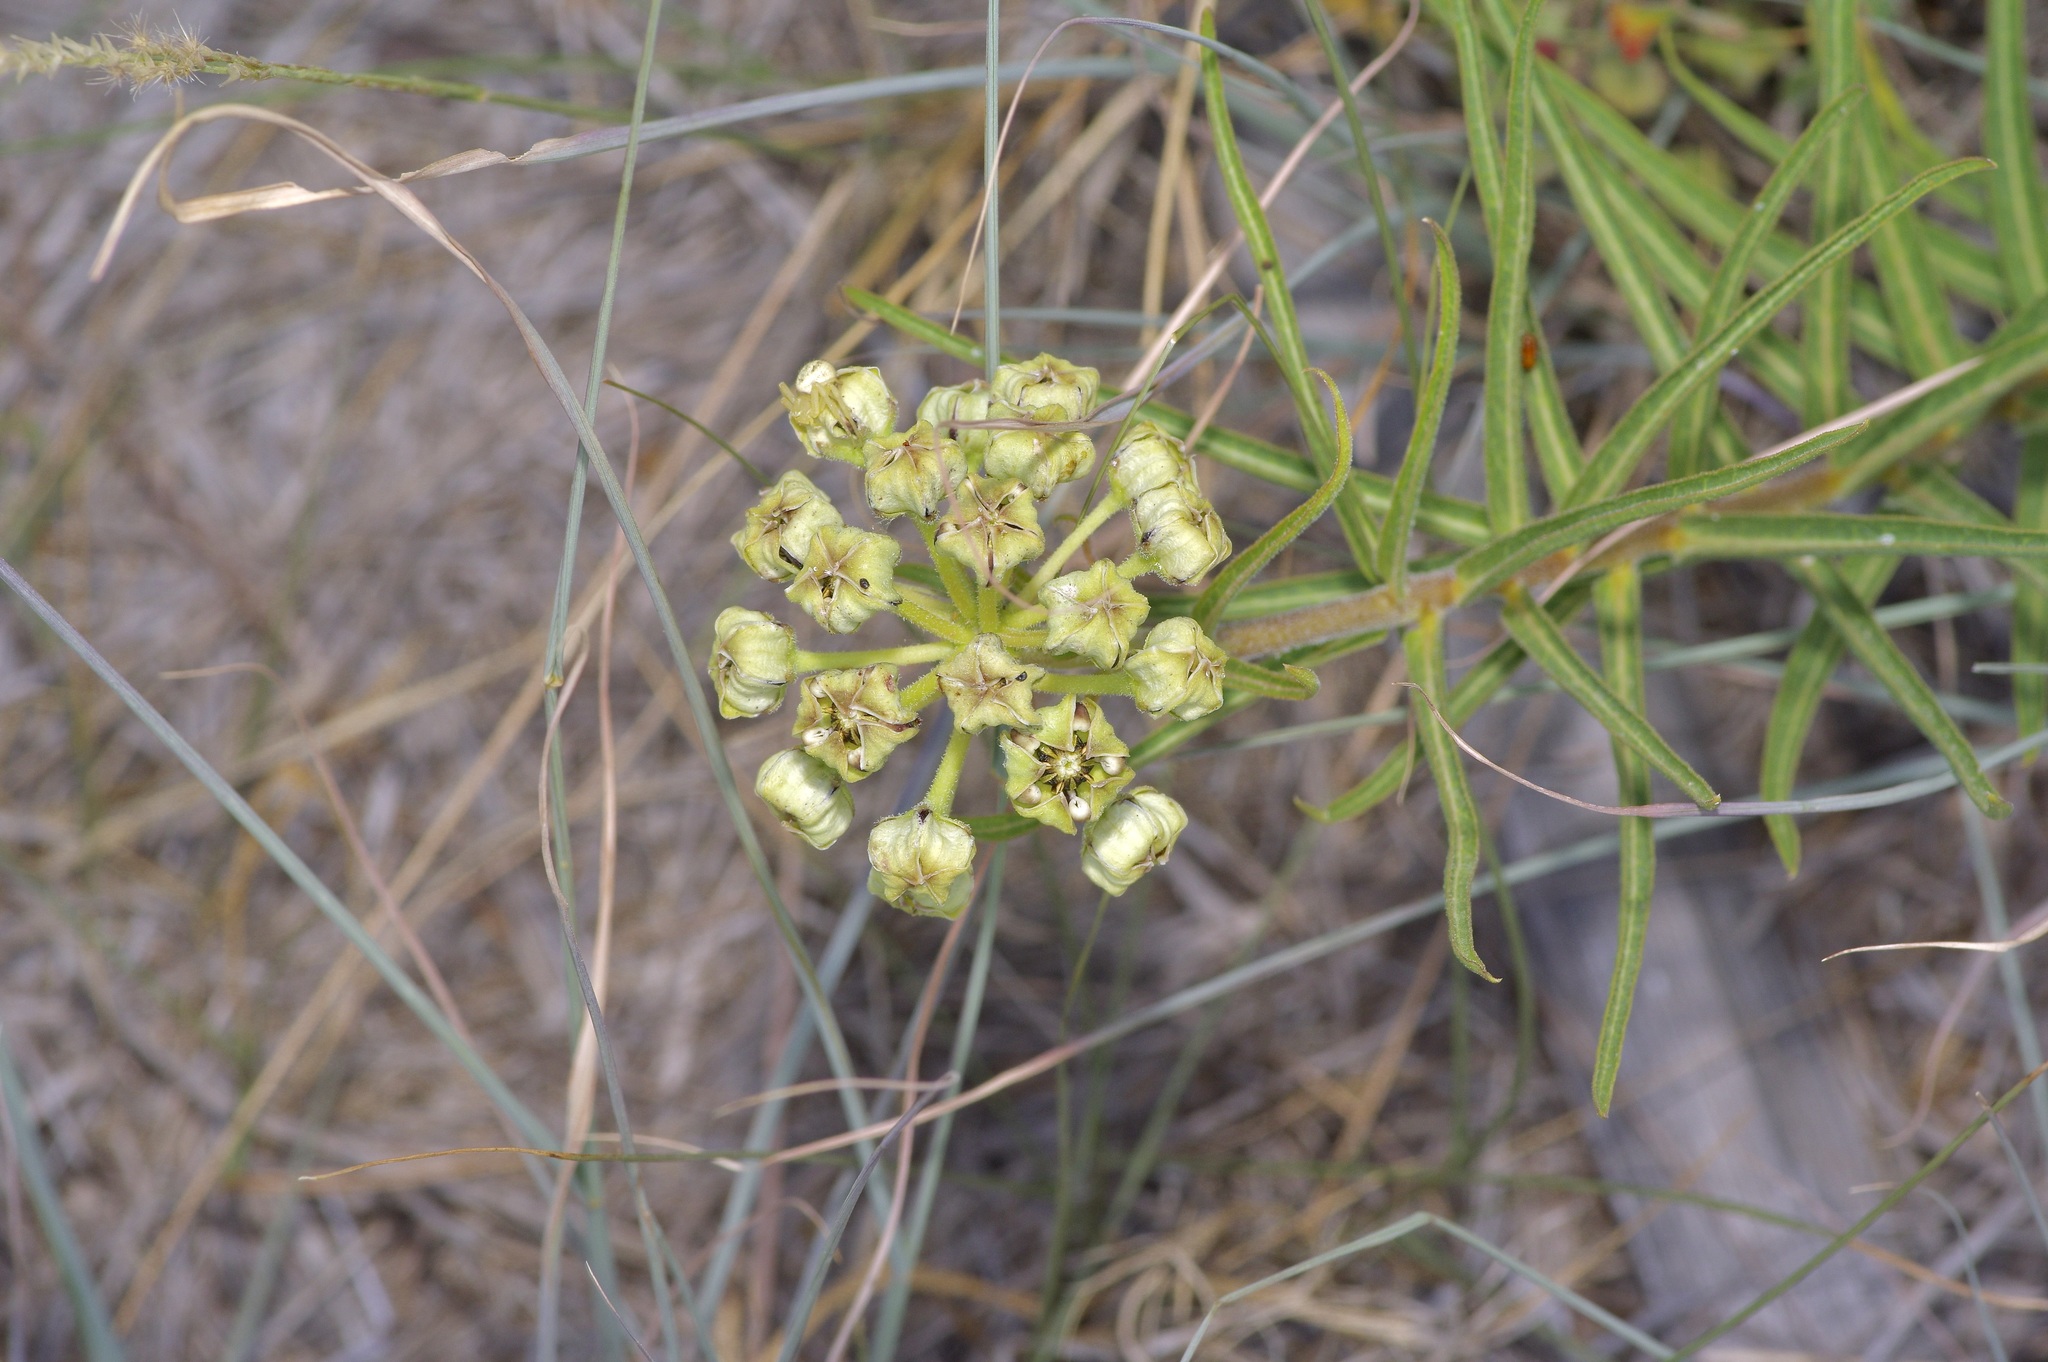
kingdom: Plantae
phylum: Tracheophyta
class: Magnoliopsida
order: Gentianales
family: Apocynaceae
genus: Asclepias
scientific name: Asclepias asperula
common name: Antelope horns
